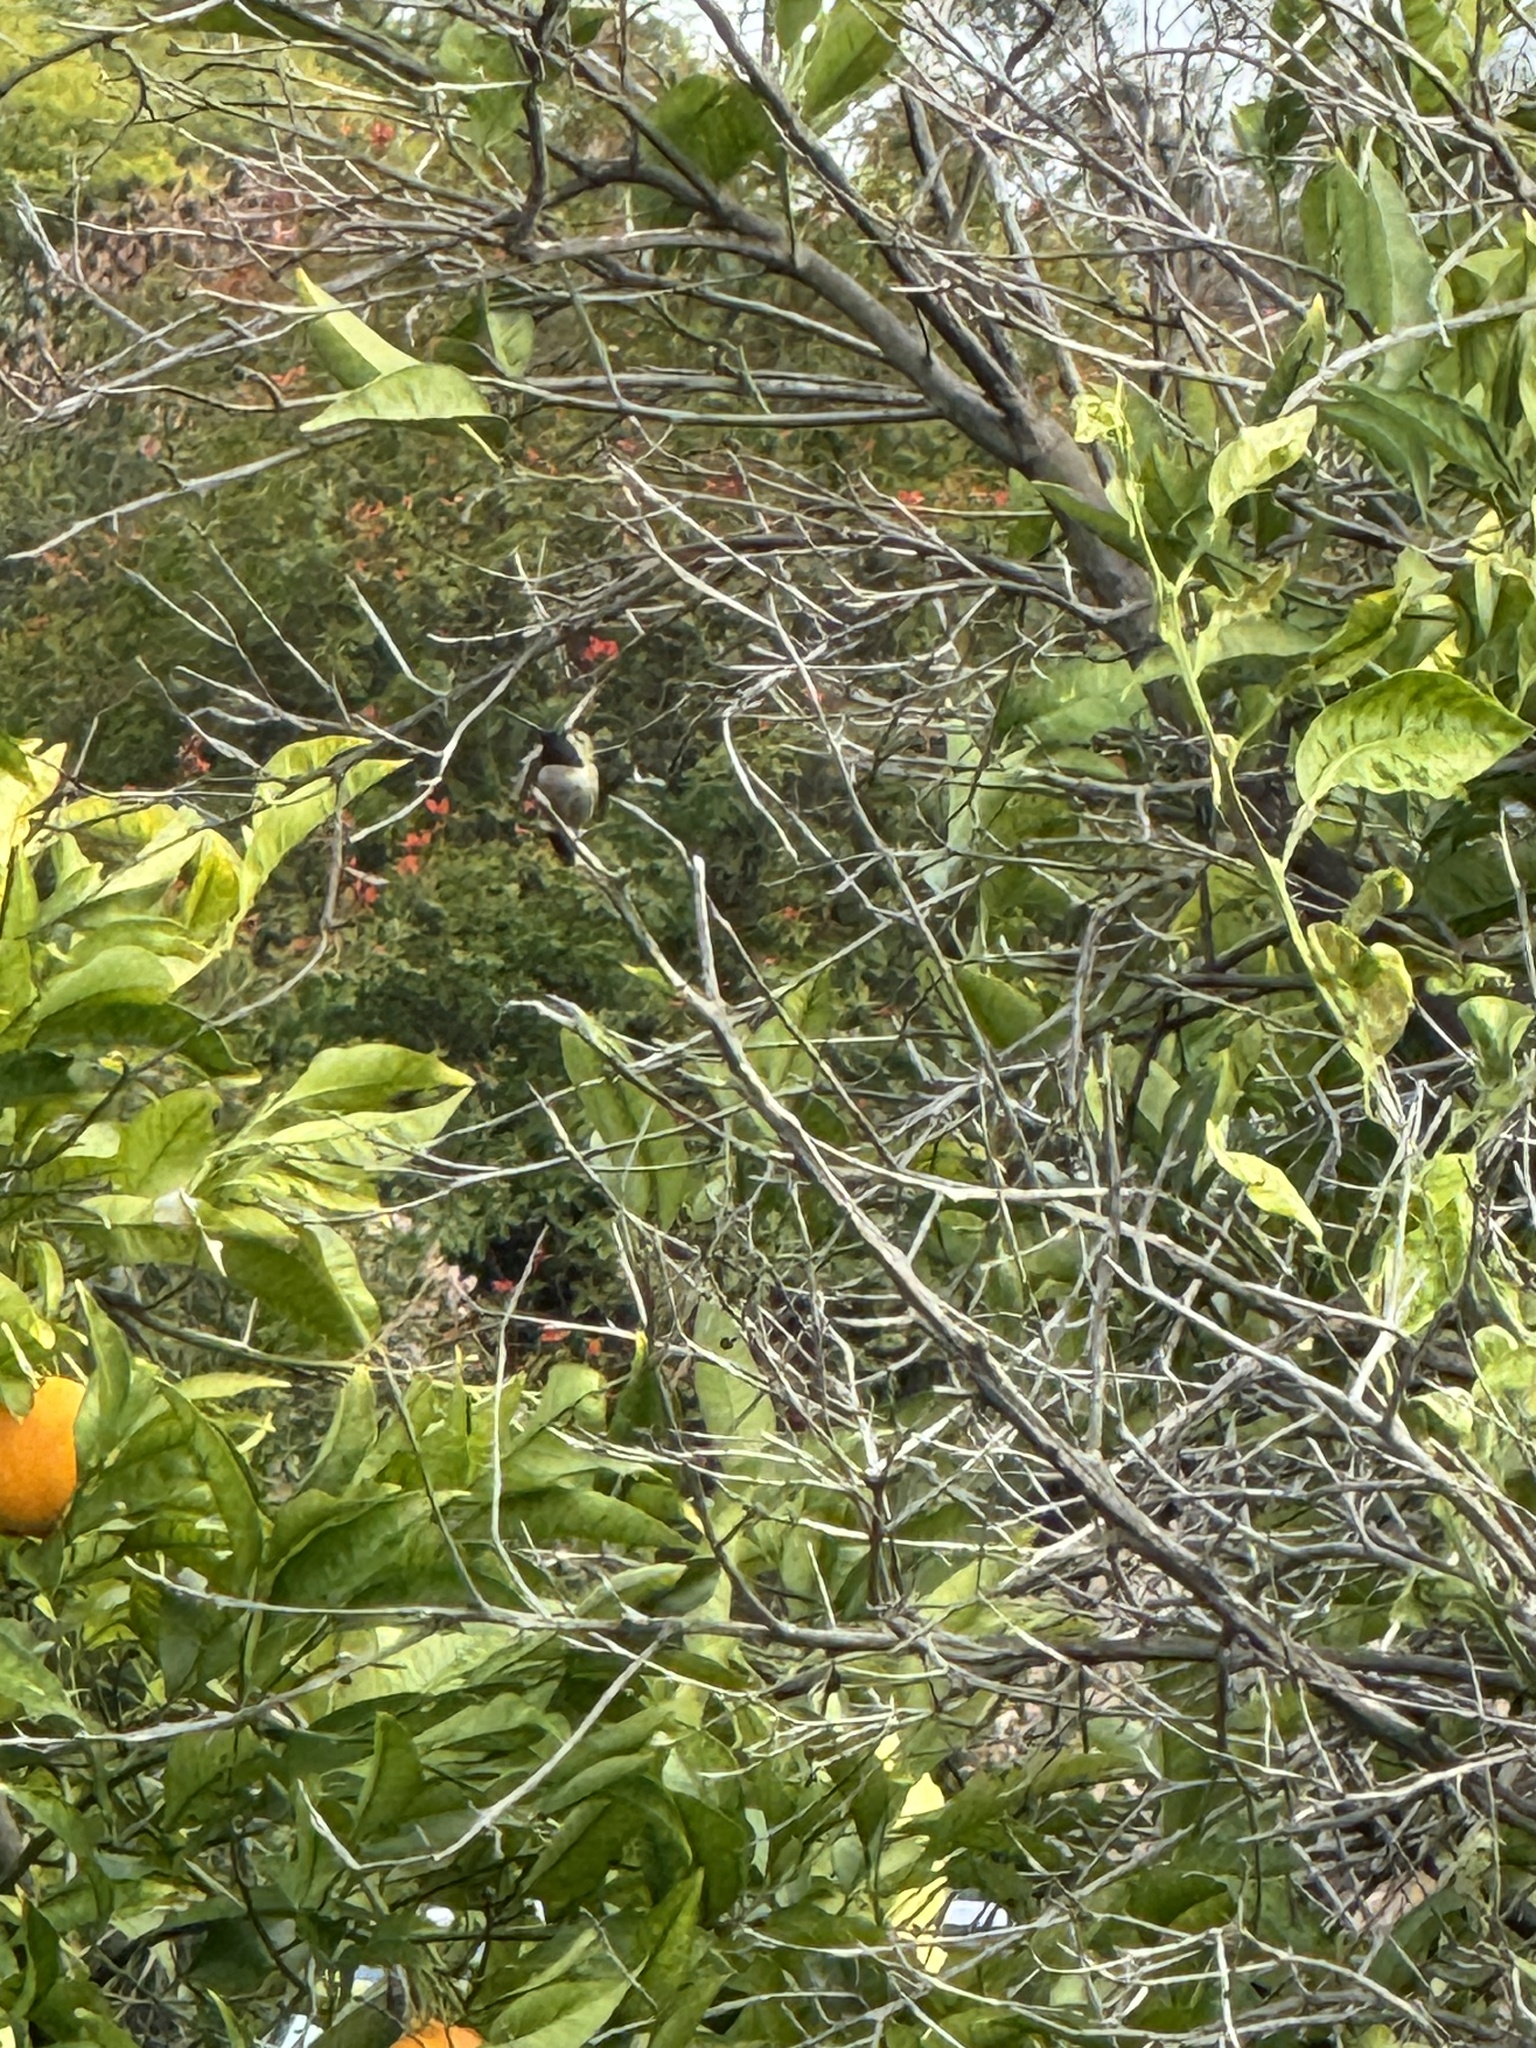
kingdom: Animalia
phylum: Chordata
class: Aves
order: Apodiformes
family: Trochilidae
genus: Calypte
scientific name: Calypte anna
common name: Anna's hummingbird
